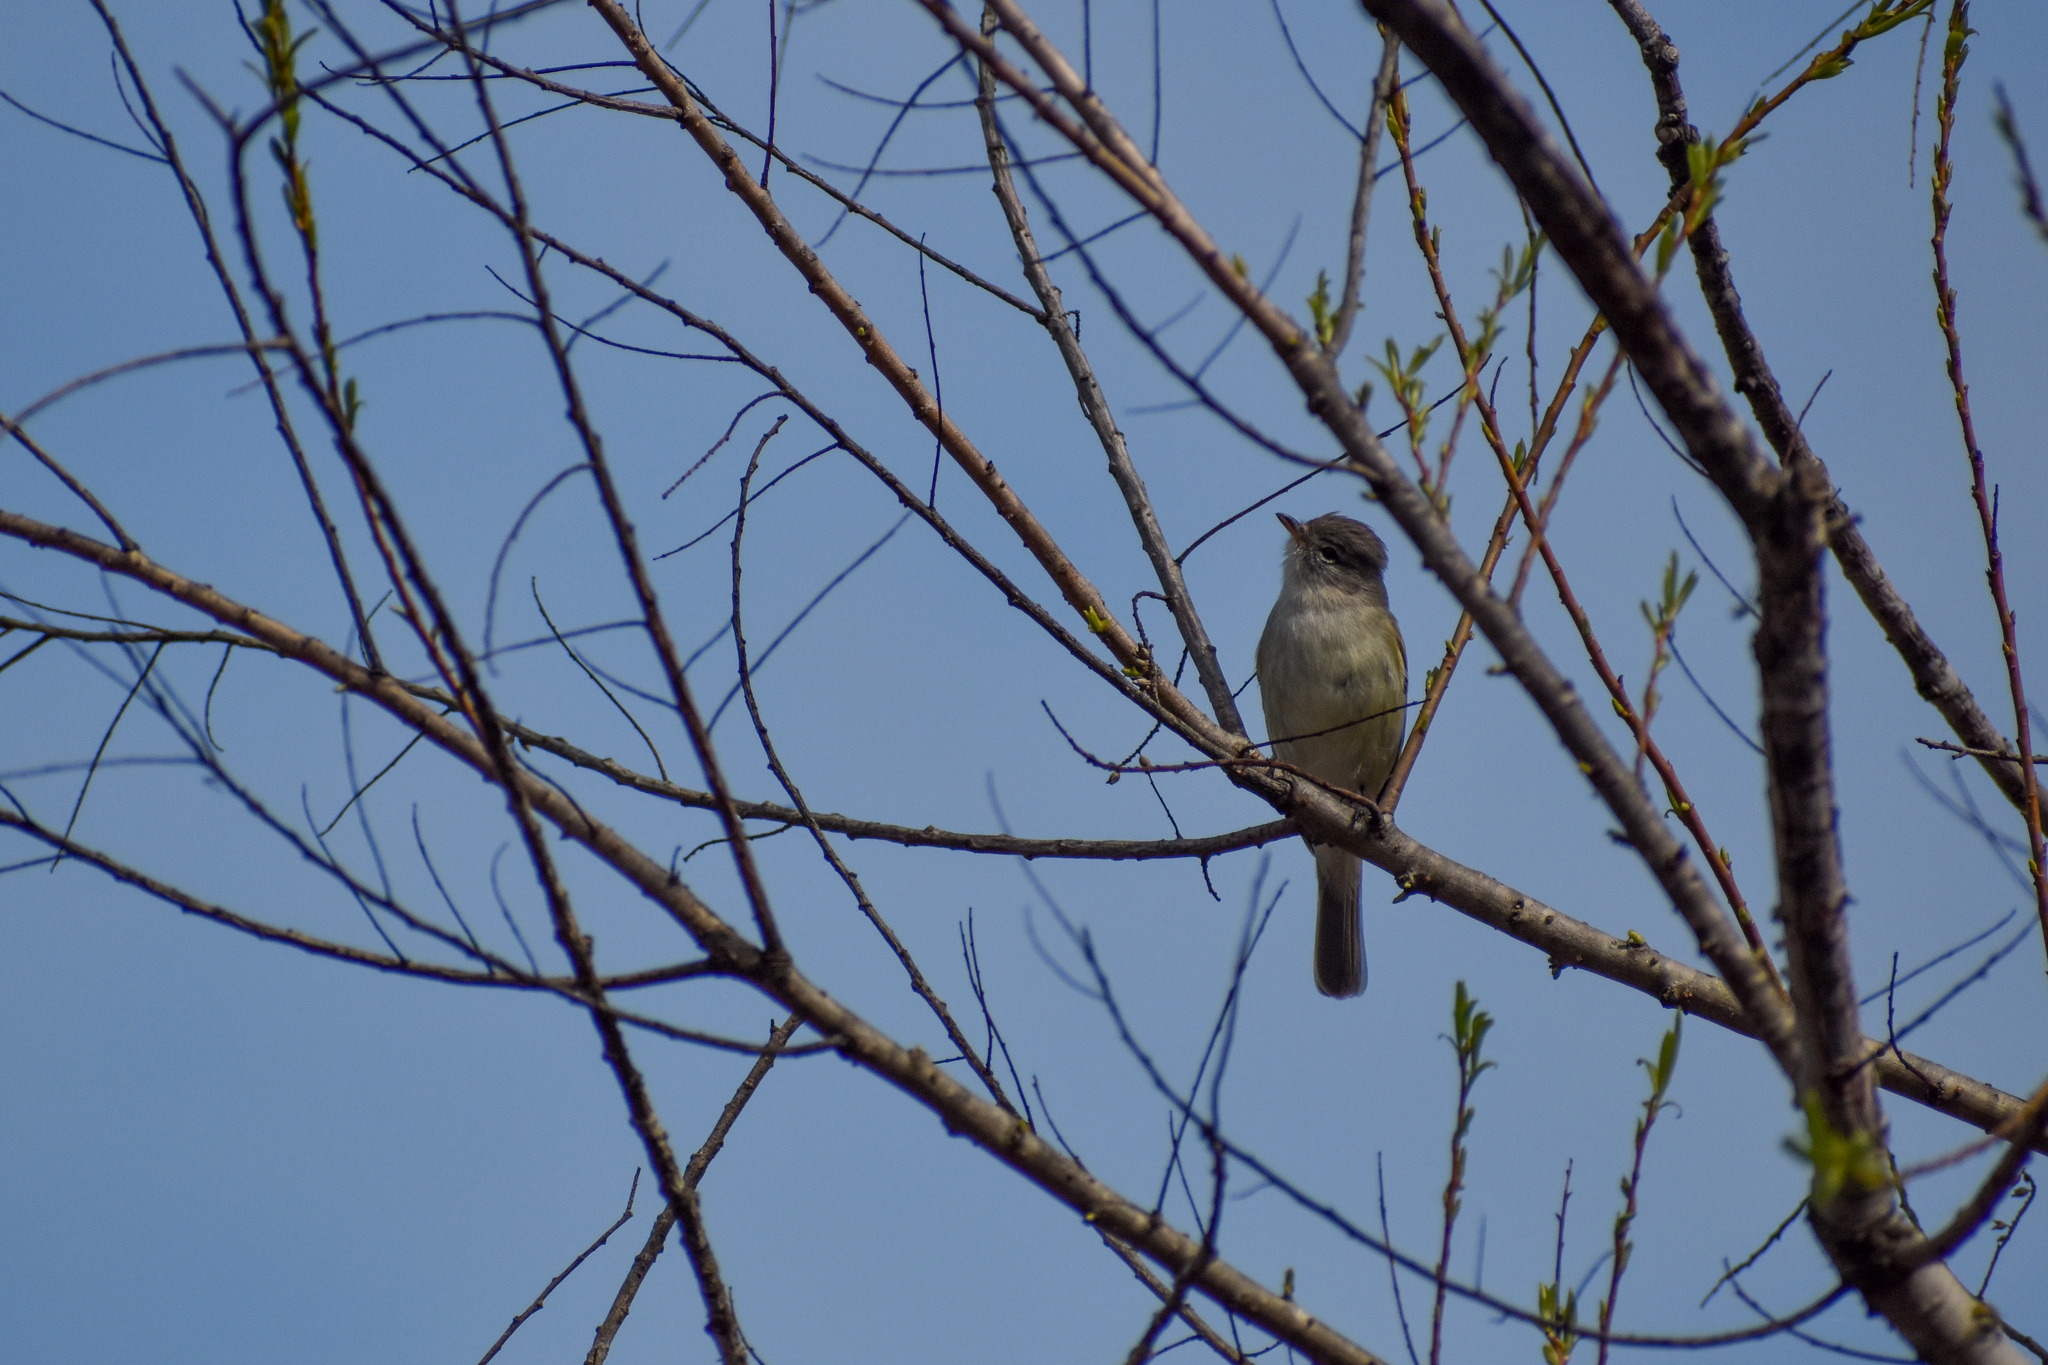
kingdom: Animalia
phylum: Chordata
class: Aves
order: Passeriformes
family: Tyrannidae
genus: Camptostoma
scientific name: Camptostoma obsoletum
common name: Southern beardless-tyrannulet
